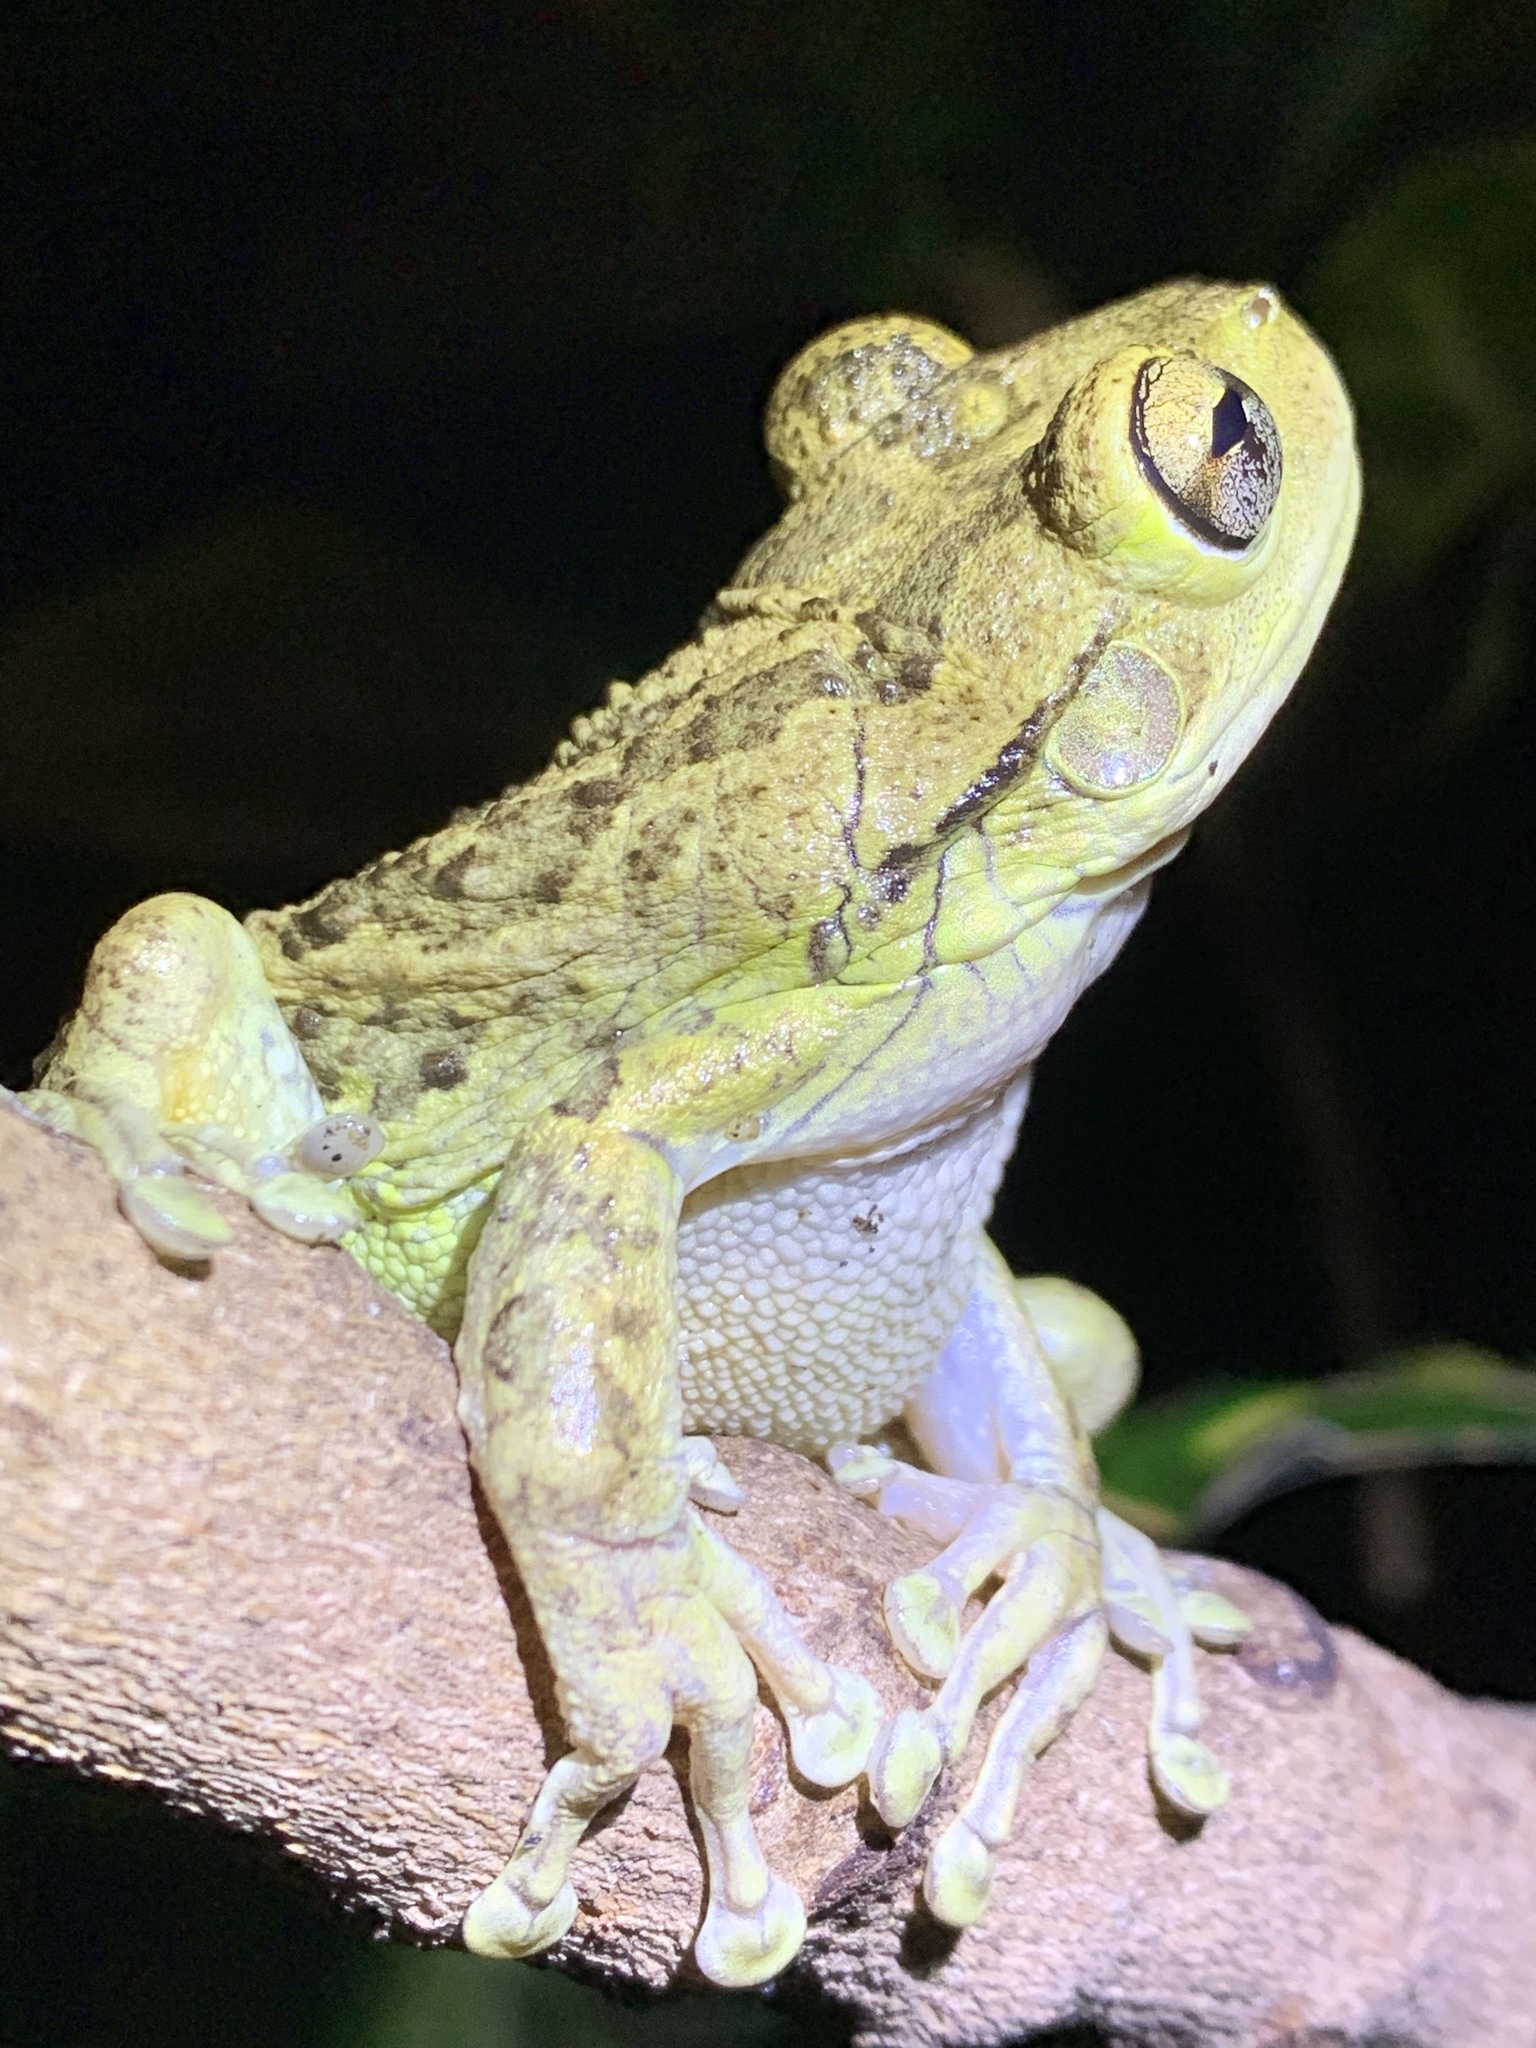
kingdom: Animalia
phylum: Chordata
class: Amphibia
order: Anura
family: Hylidae
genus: Osteopilus
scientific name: Osteopilus septentrionalis
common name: Cuban treefrog
